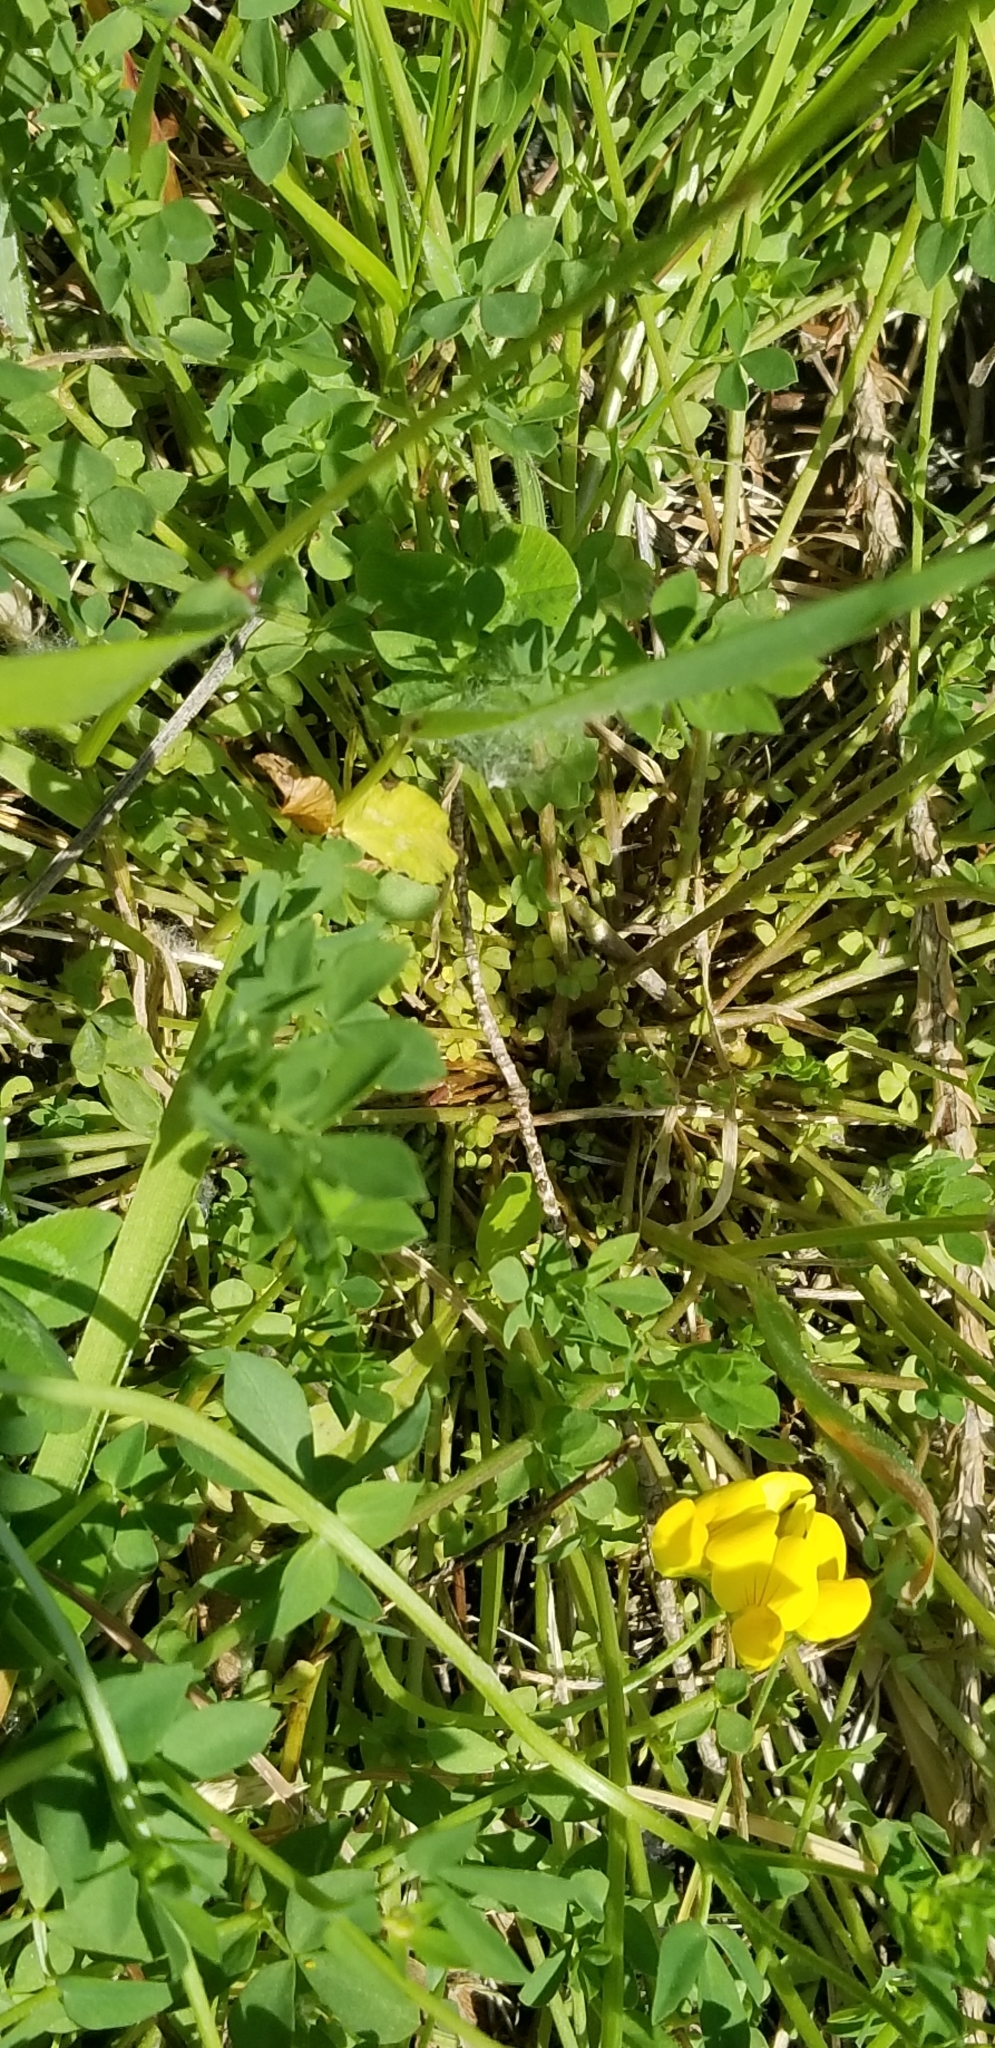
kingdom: Plantae
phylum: Tracheophyta
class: Magnoliopsida
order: Fabales
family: Fabaceae
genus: Lotus
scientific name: Lotus corniculatus
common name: Common bird's-foot-trefoil
